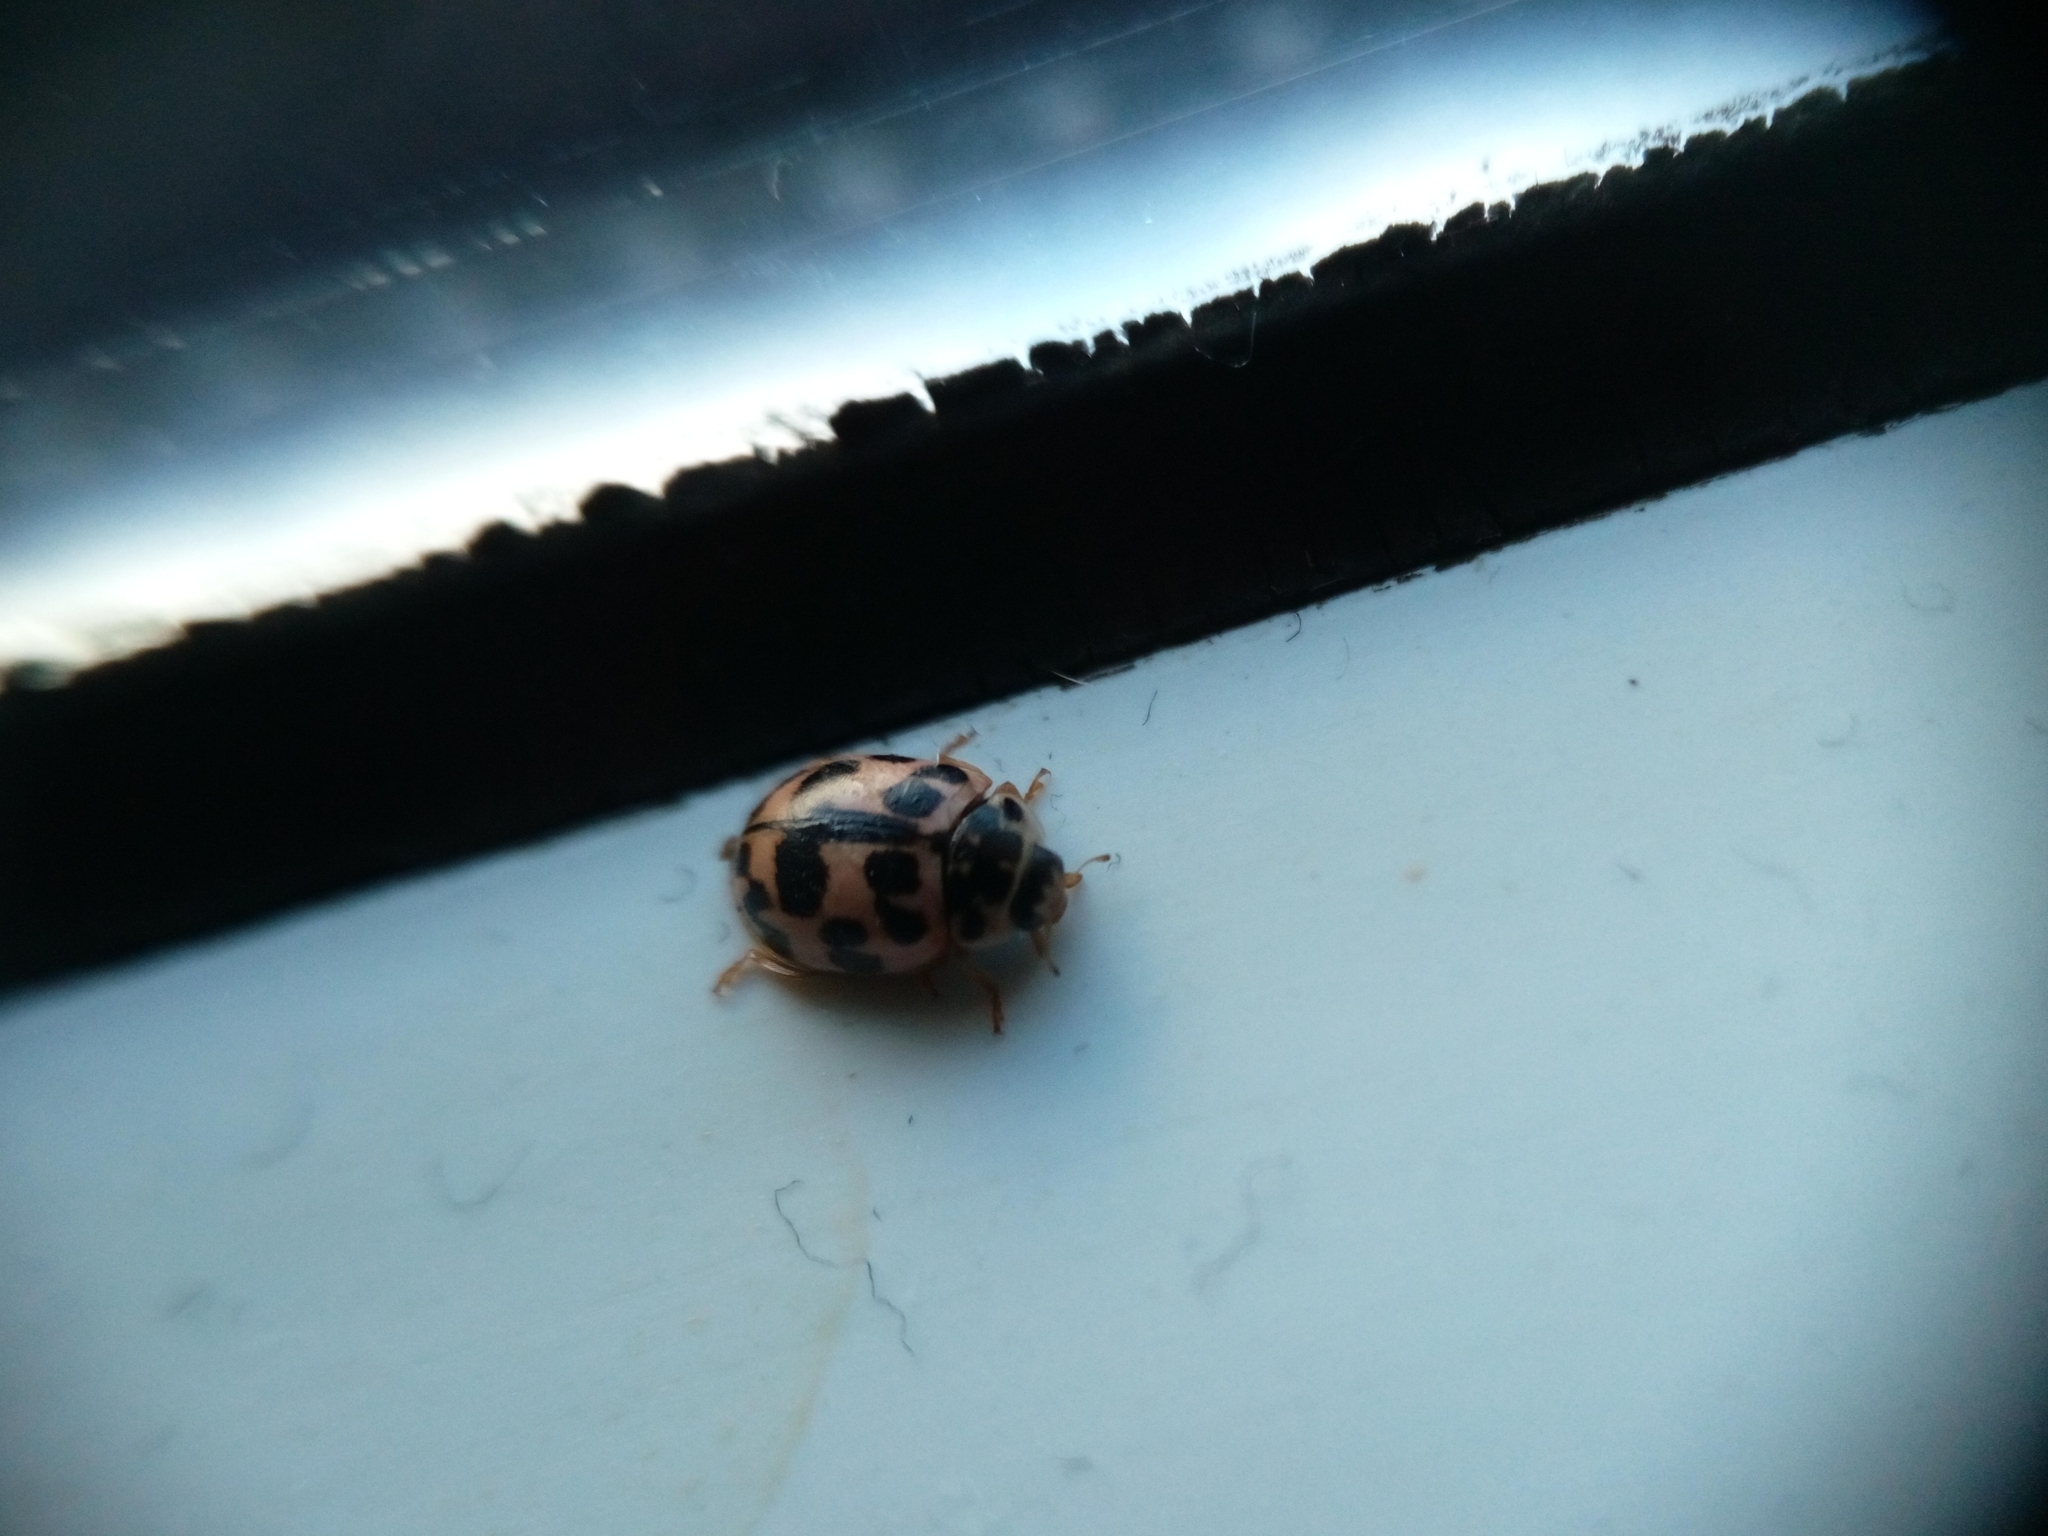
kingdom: Animalia
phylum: Arthropoda
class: Insecta
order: Coleoptera
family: Coccinellidae
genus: Oenopia
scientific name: Oenopia conglobata
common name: Ladybird beetle
